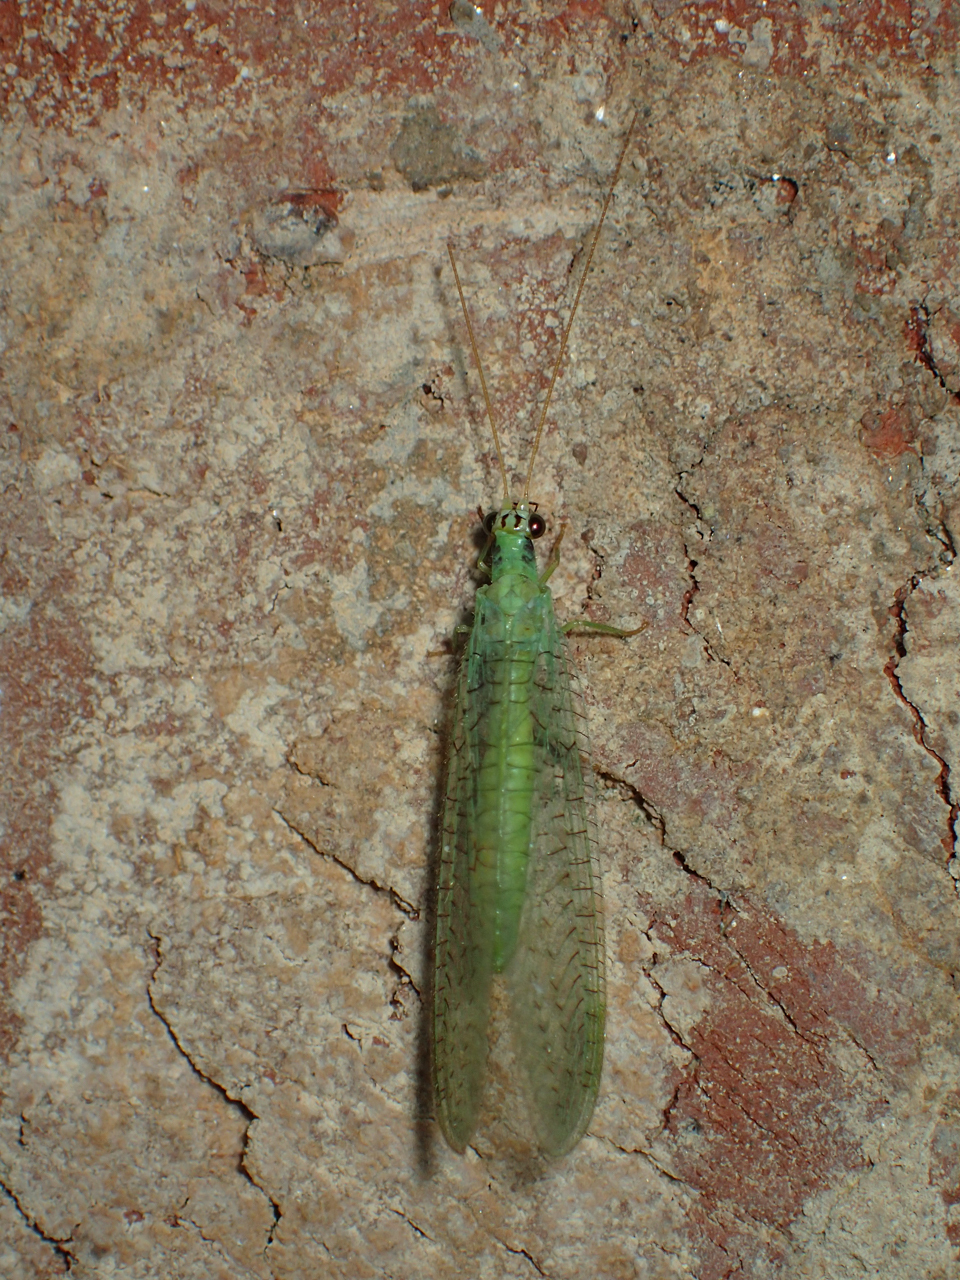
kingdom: Animalia
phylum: Arthropoda
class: Insecta
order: Neuroptera
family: Chrysopidae
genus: Chrysopa
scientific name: Chrysopa incompleta
